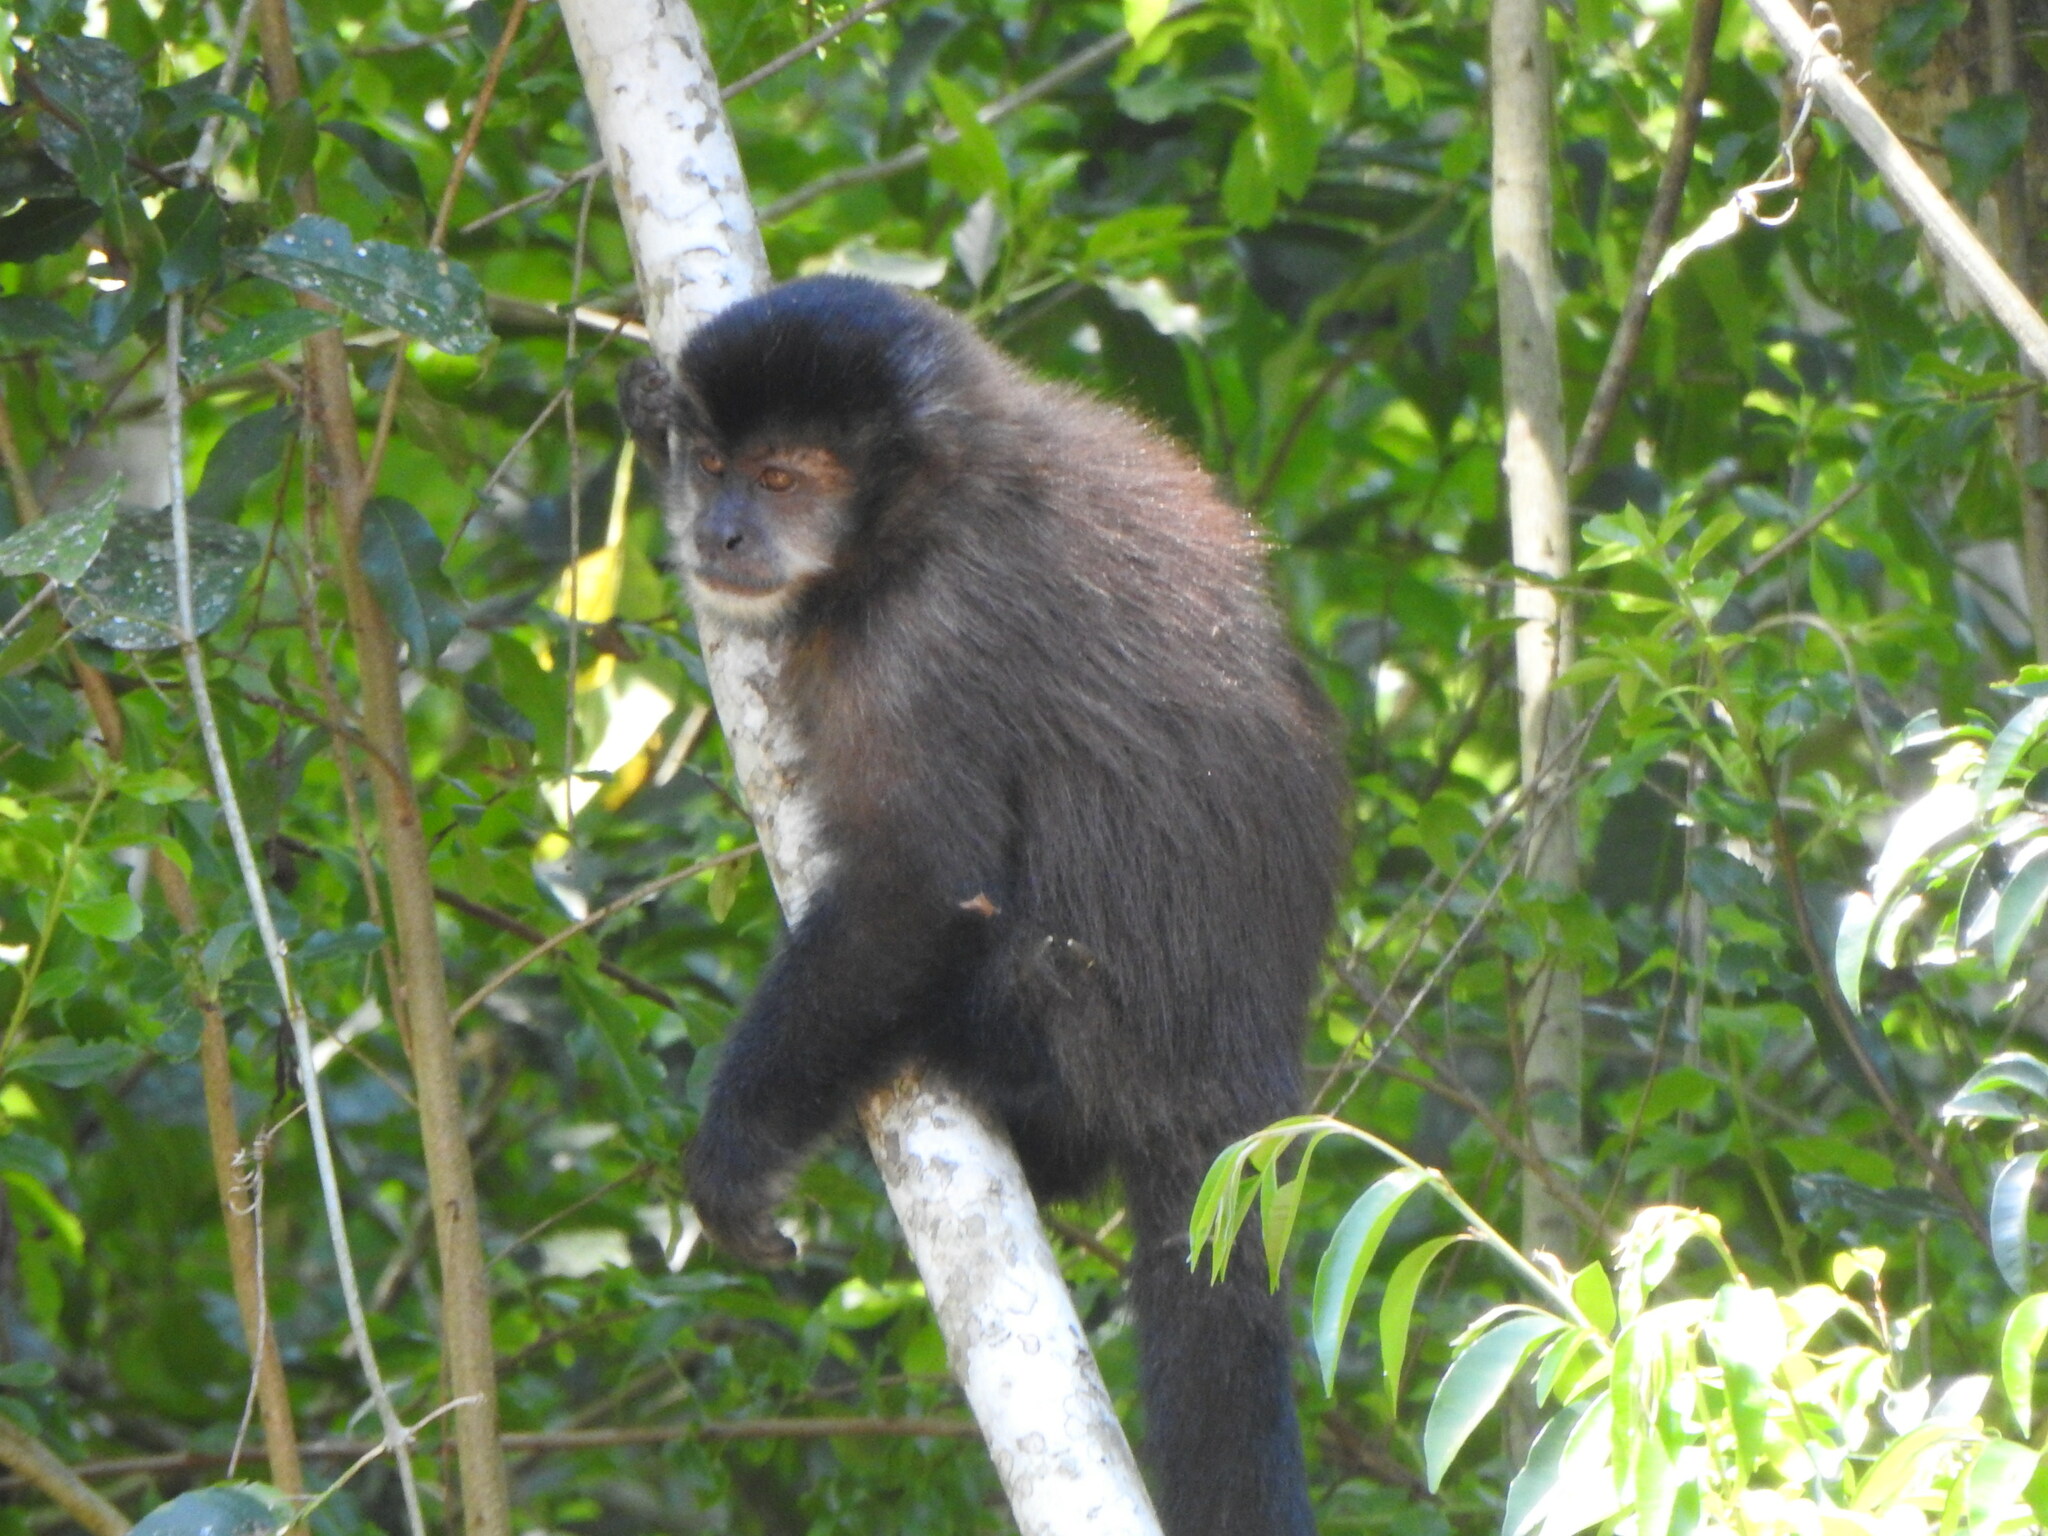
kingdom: Animalia
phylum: Chordata
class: Mammalia
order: Primates
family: Cebidae
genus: Sapajus
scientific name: Sapajus nigritus
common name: Black capuchin
